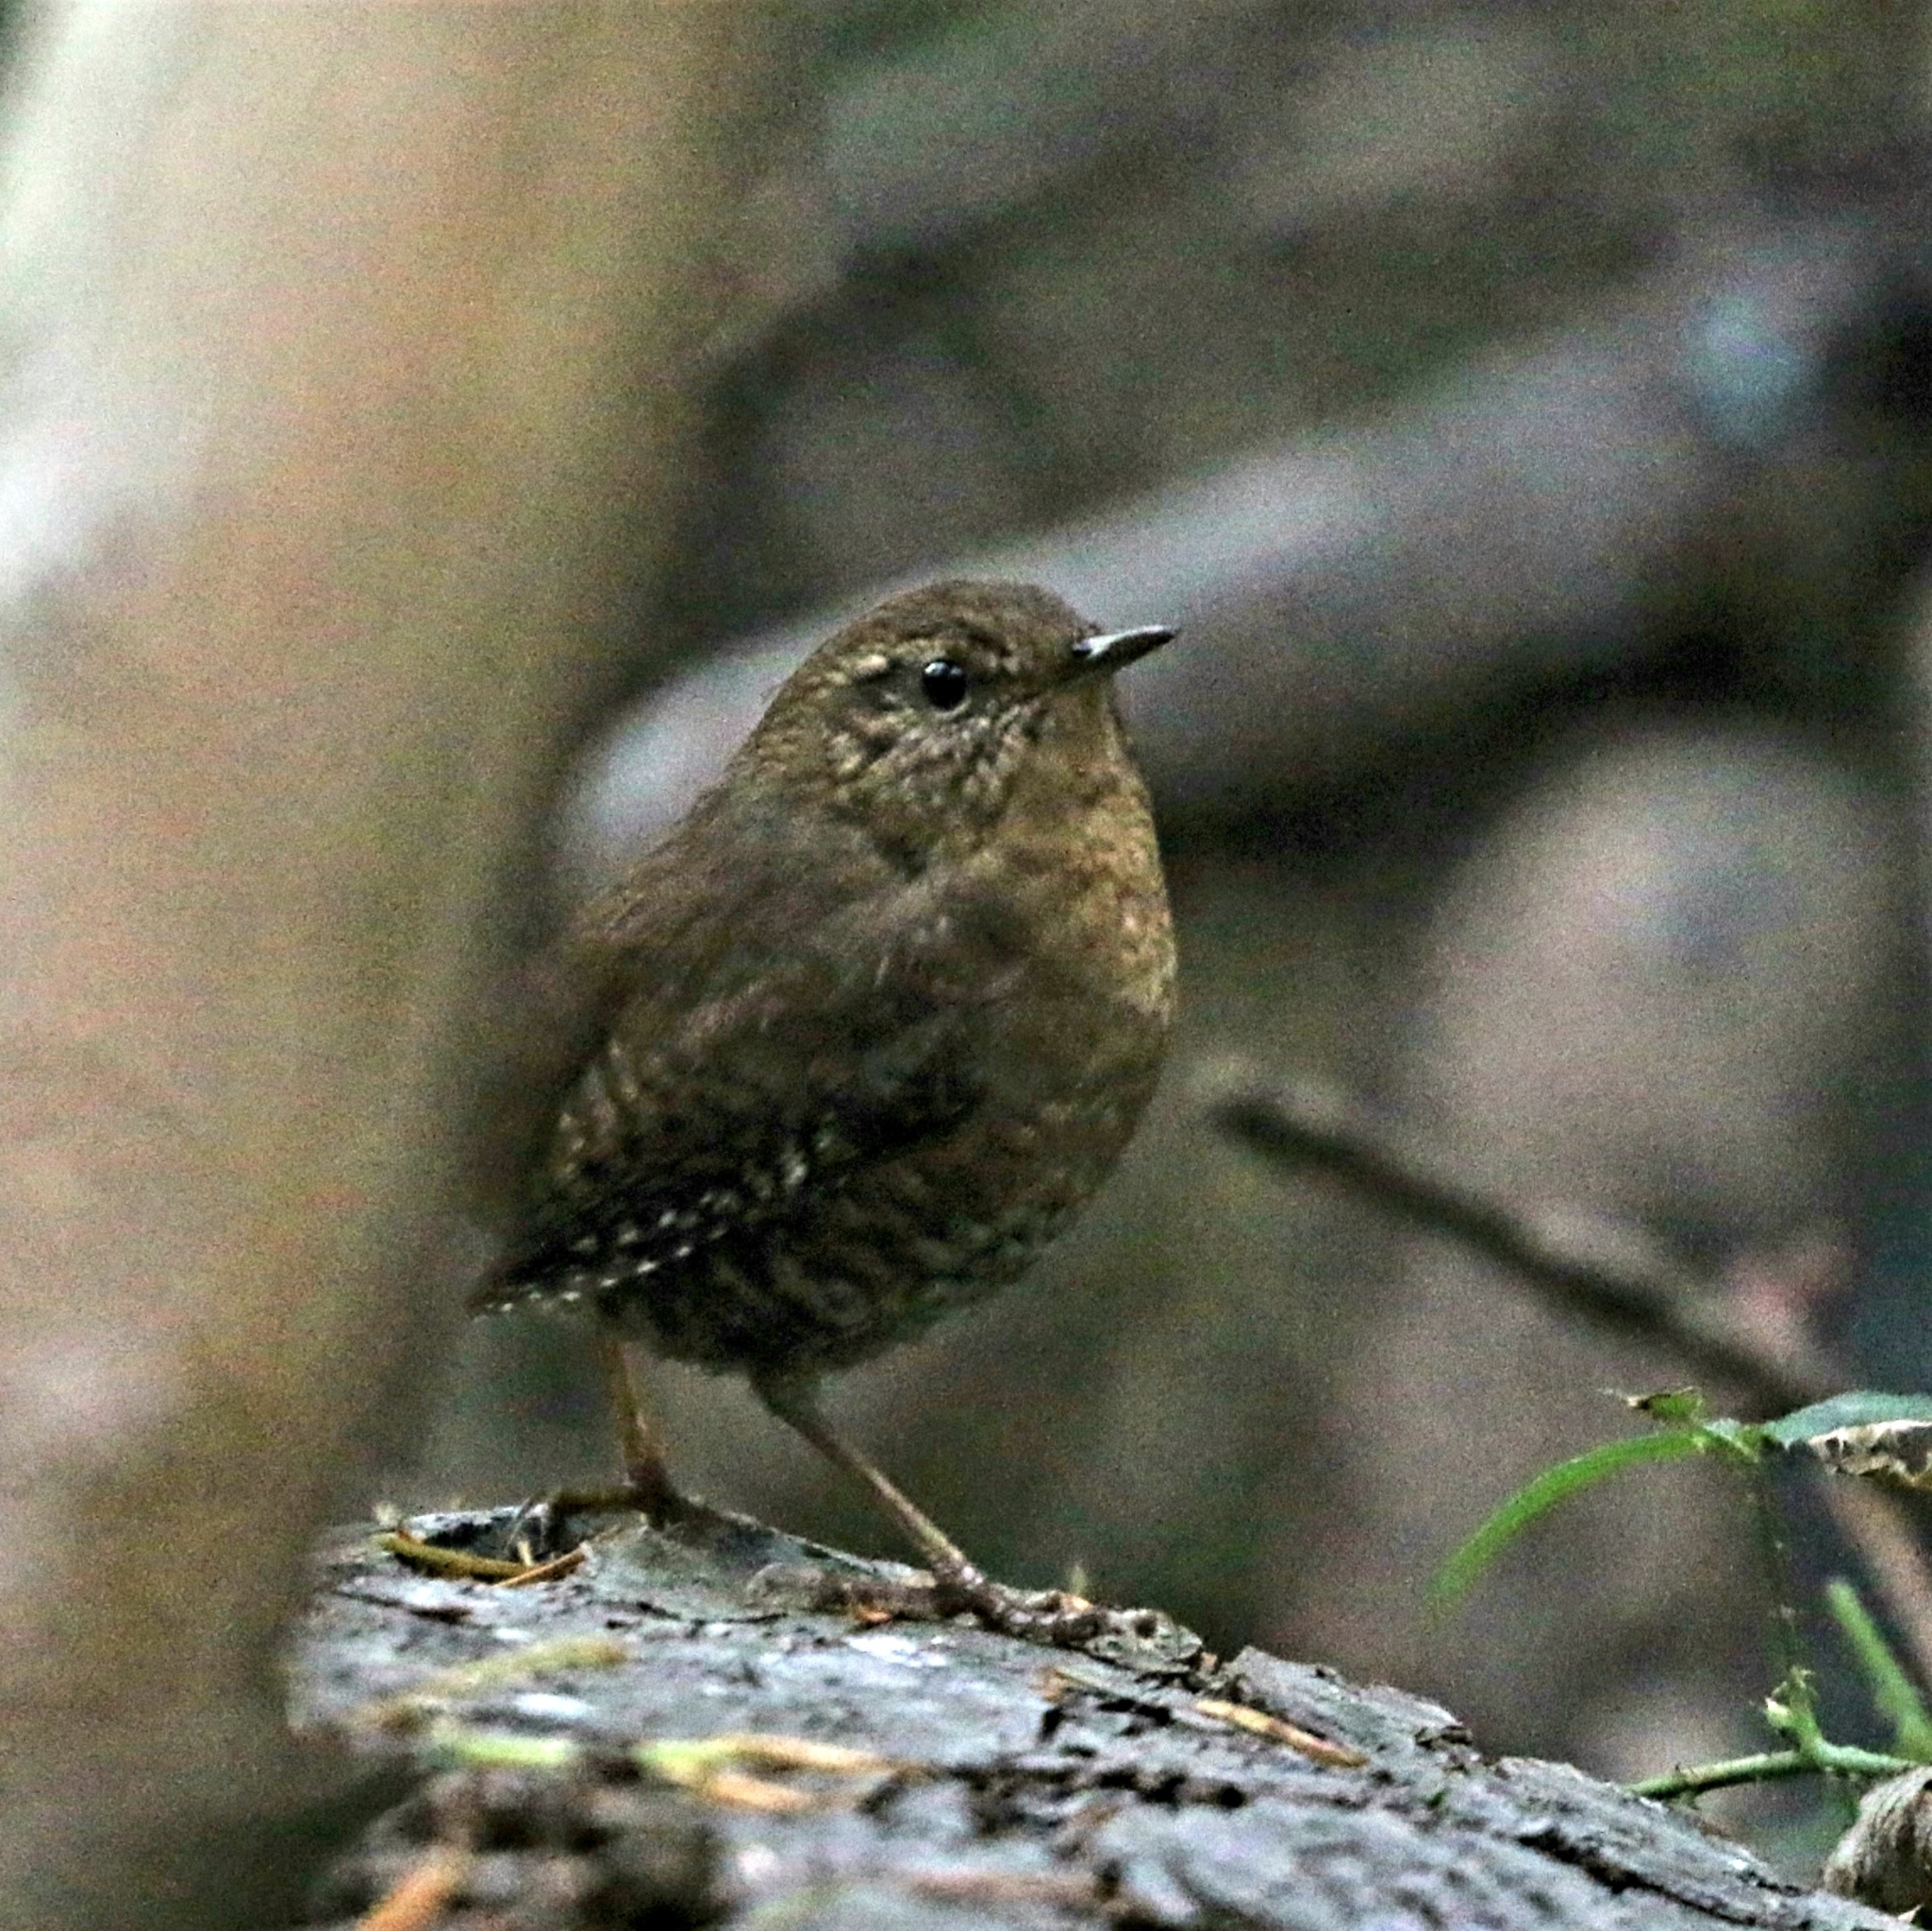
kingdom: Animalia
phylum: Chordata
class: Aves
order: Passeriformes
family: Troglodytidae
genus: Troglodytes
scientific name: Troglodytes pacificus
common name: Pacific wren
